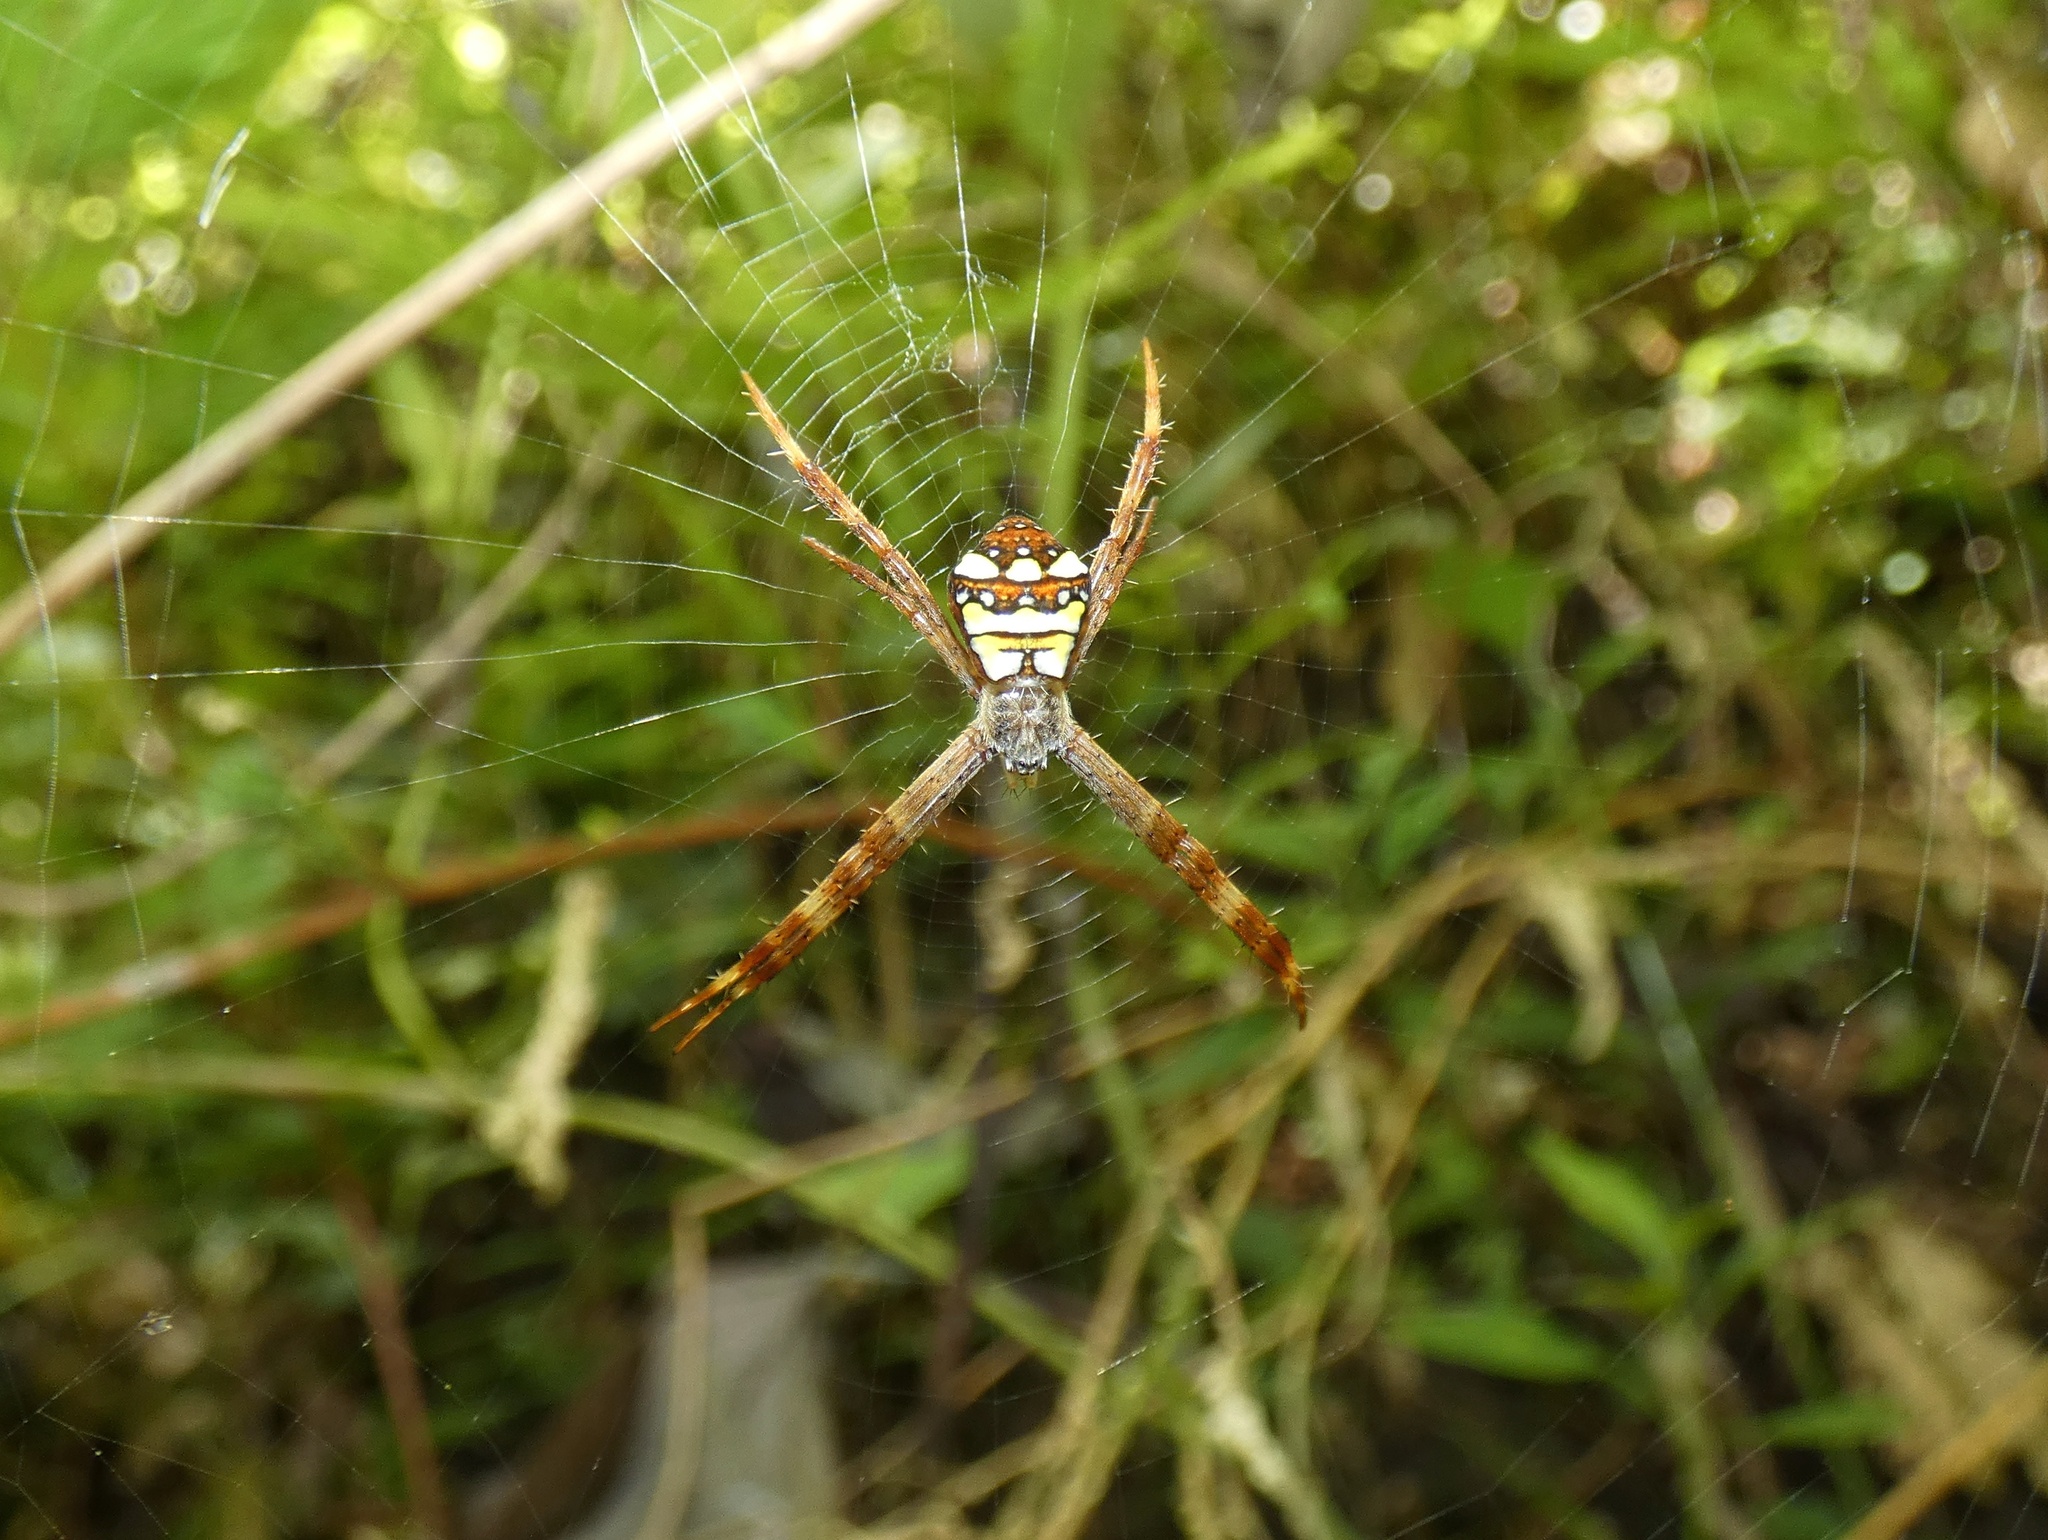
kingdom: Animalia
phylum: Arthropoda
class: Arachnida
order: Araneae
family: Araneidae
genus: Argiope
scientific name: Argiope intricata
